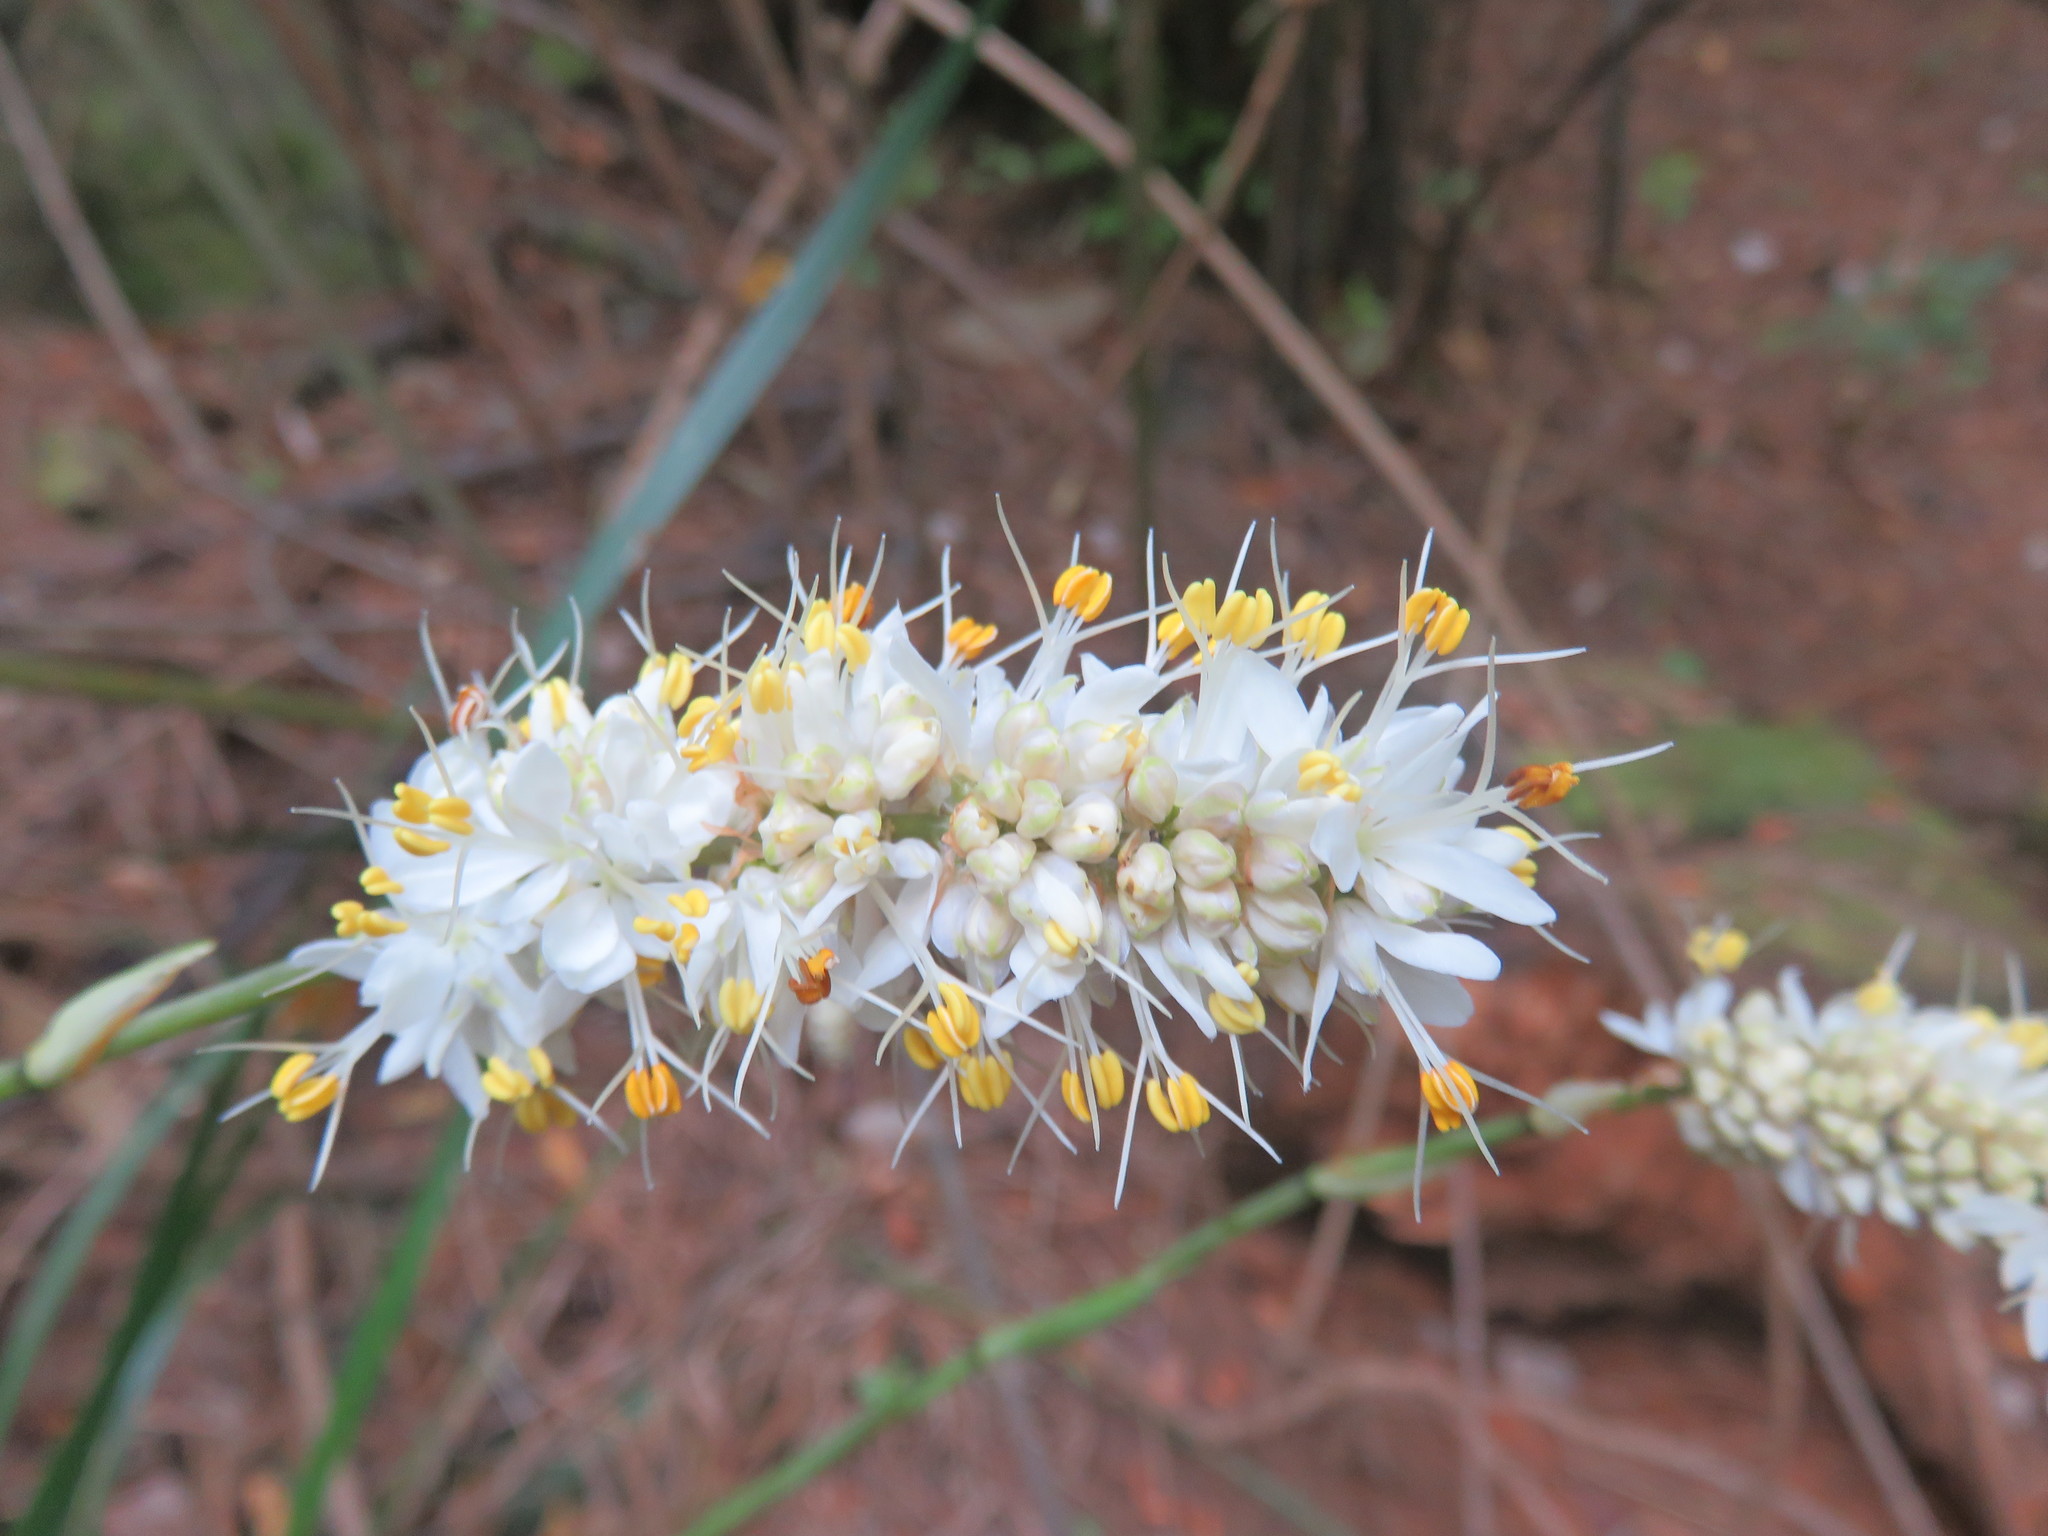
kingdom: Plantae
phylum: Tracheophyta
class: Liliopsida
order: Asparagales
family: Iridaceae
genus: Libertia
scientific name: Libertia sessiliflora
